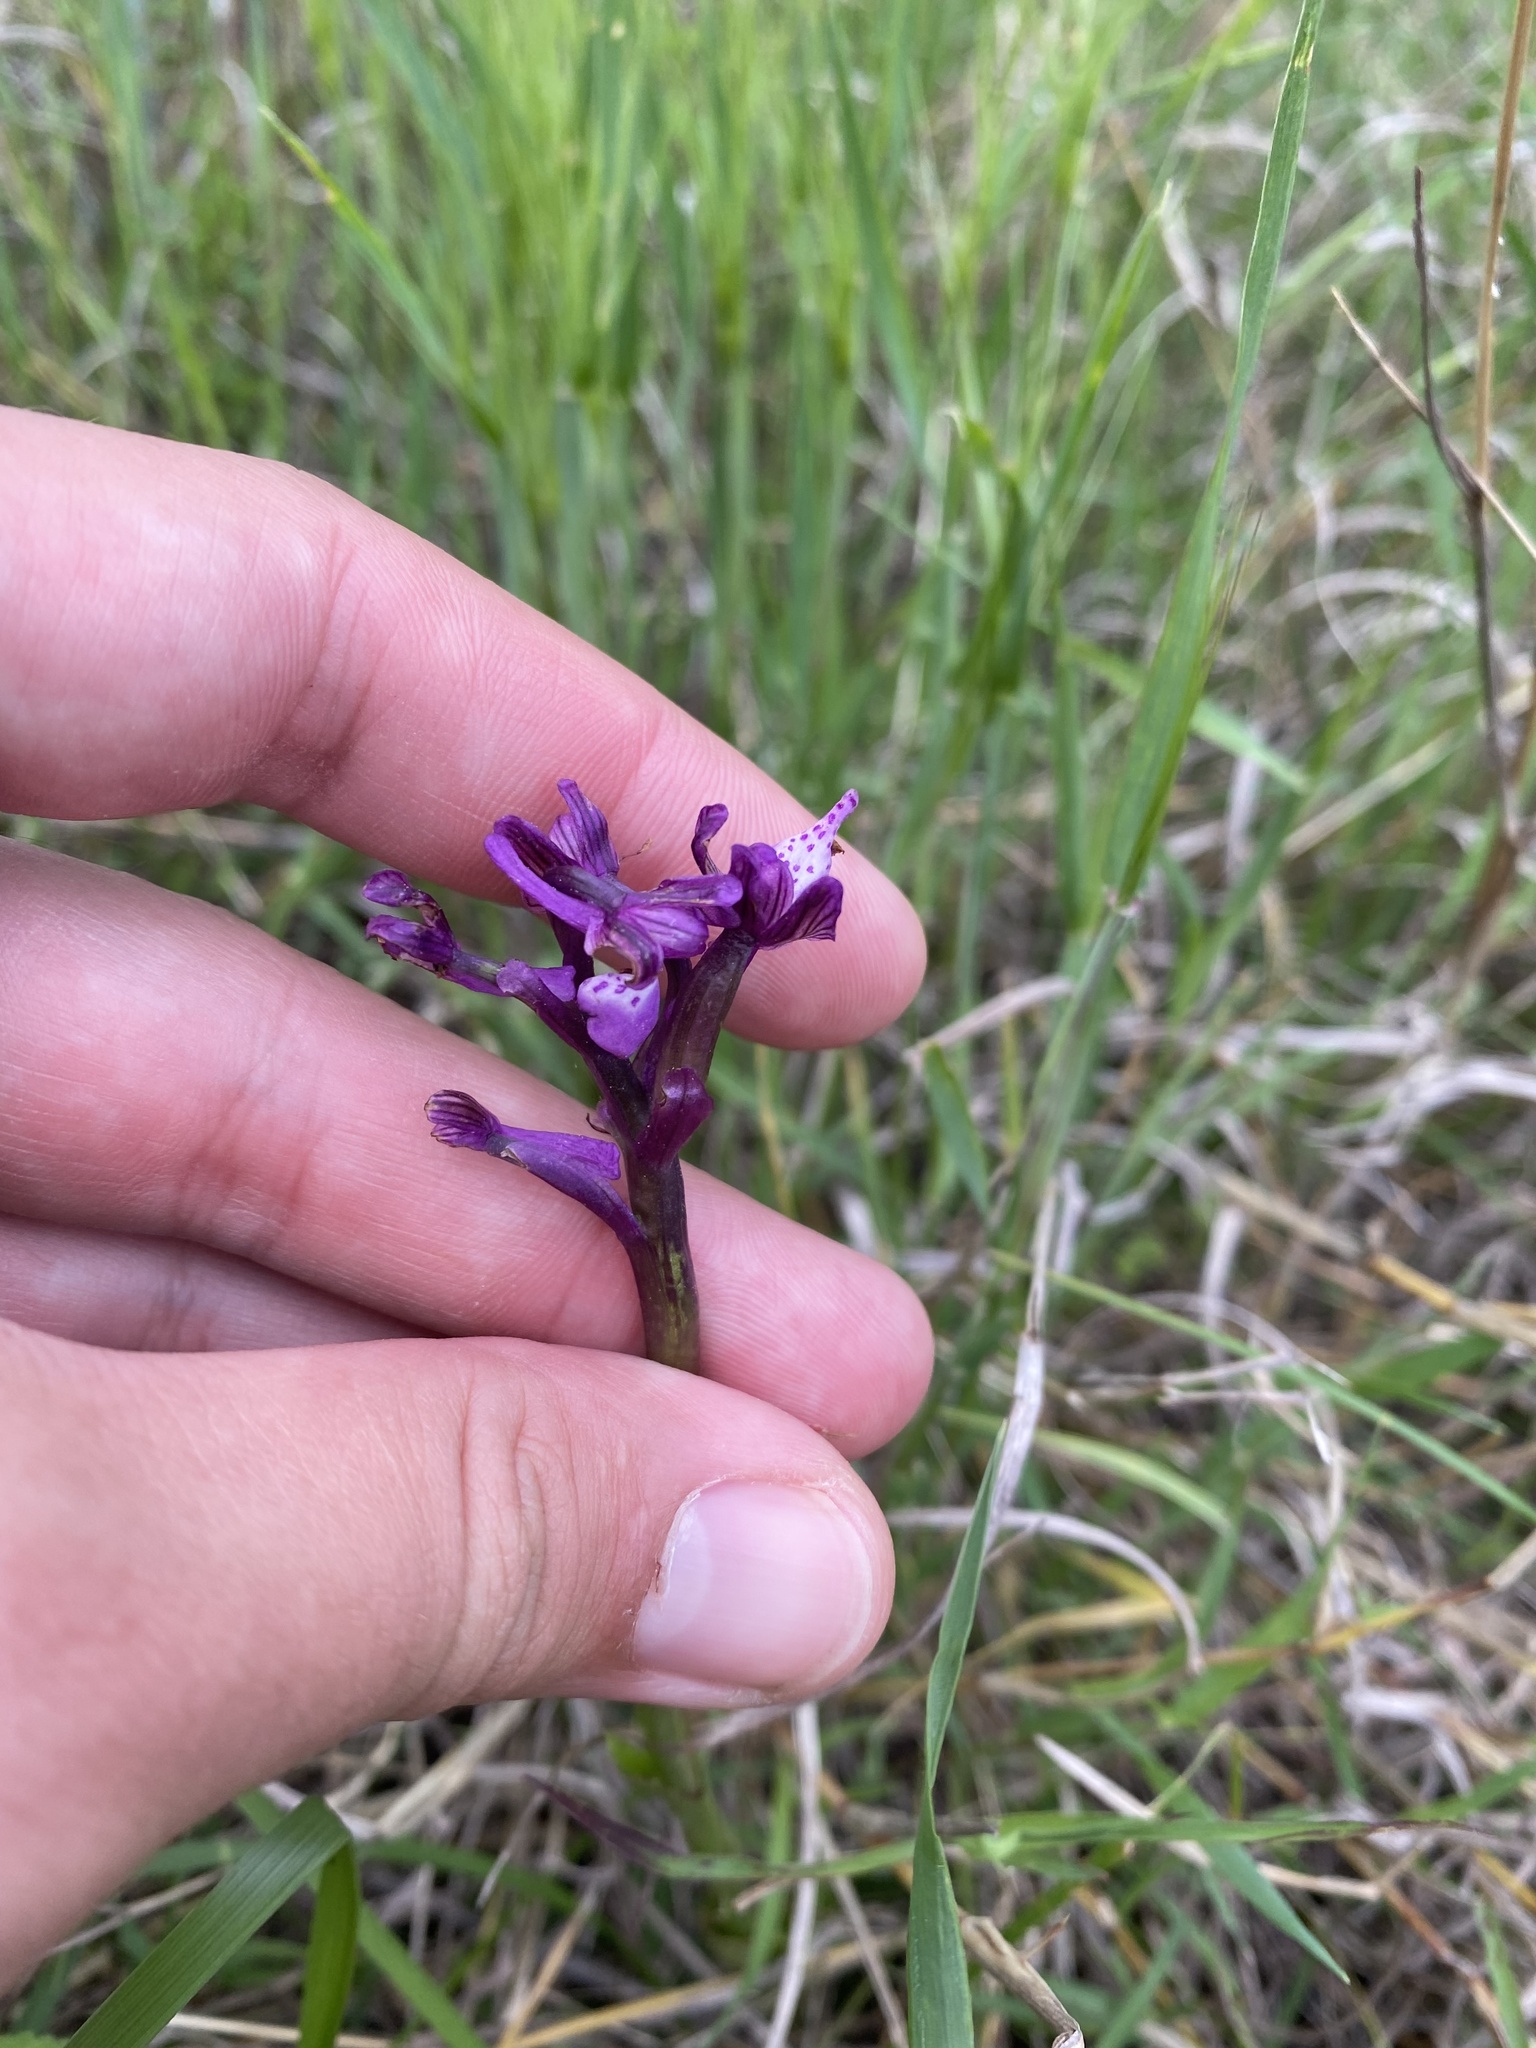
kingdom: Plantae
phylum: Tracheophyta
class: Liliopsida
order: Asparagales
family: Orchidaceae
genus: Anacamptis
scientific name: Anacamptis morio
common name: Green-winged orchid
